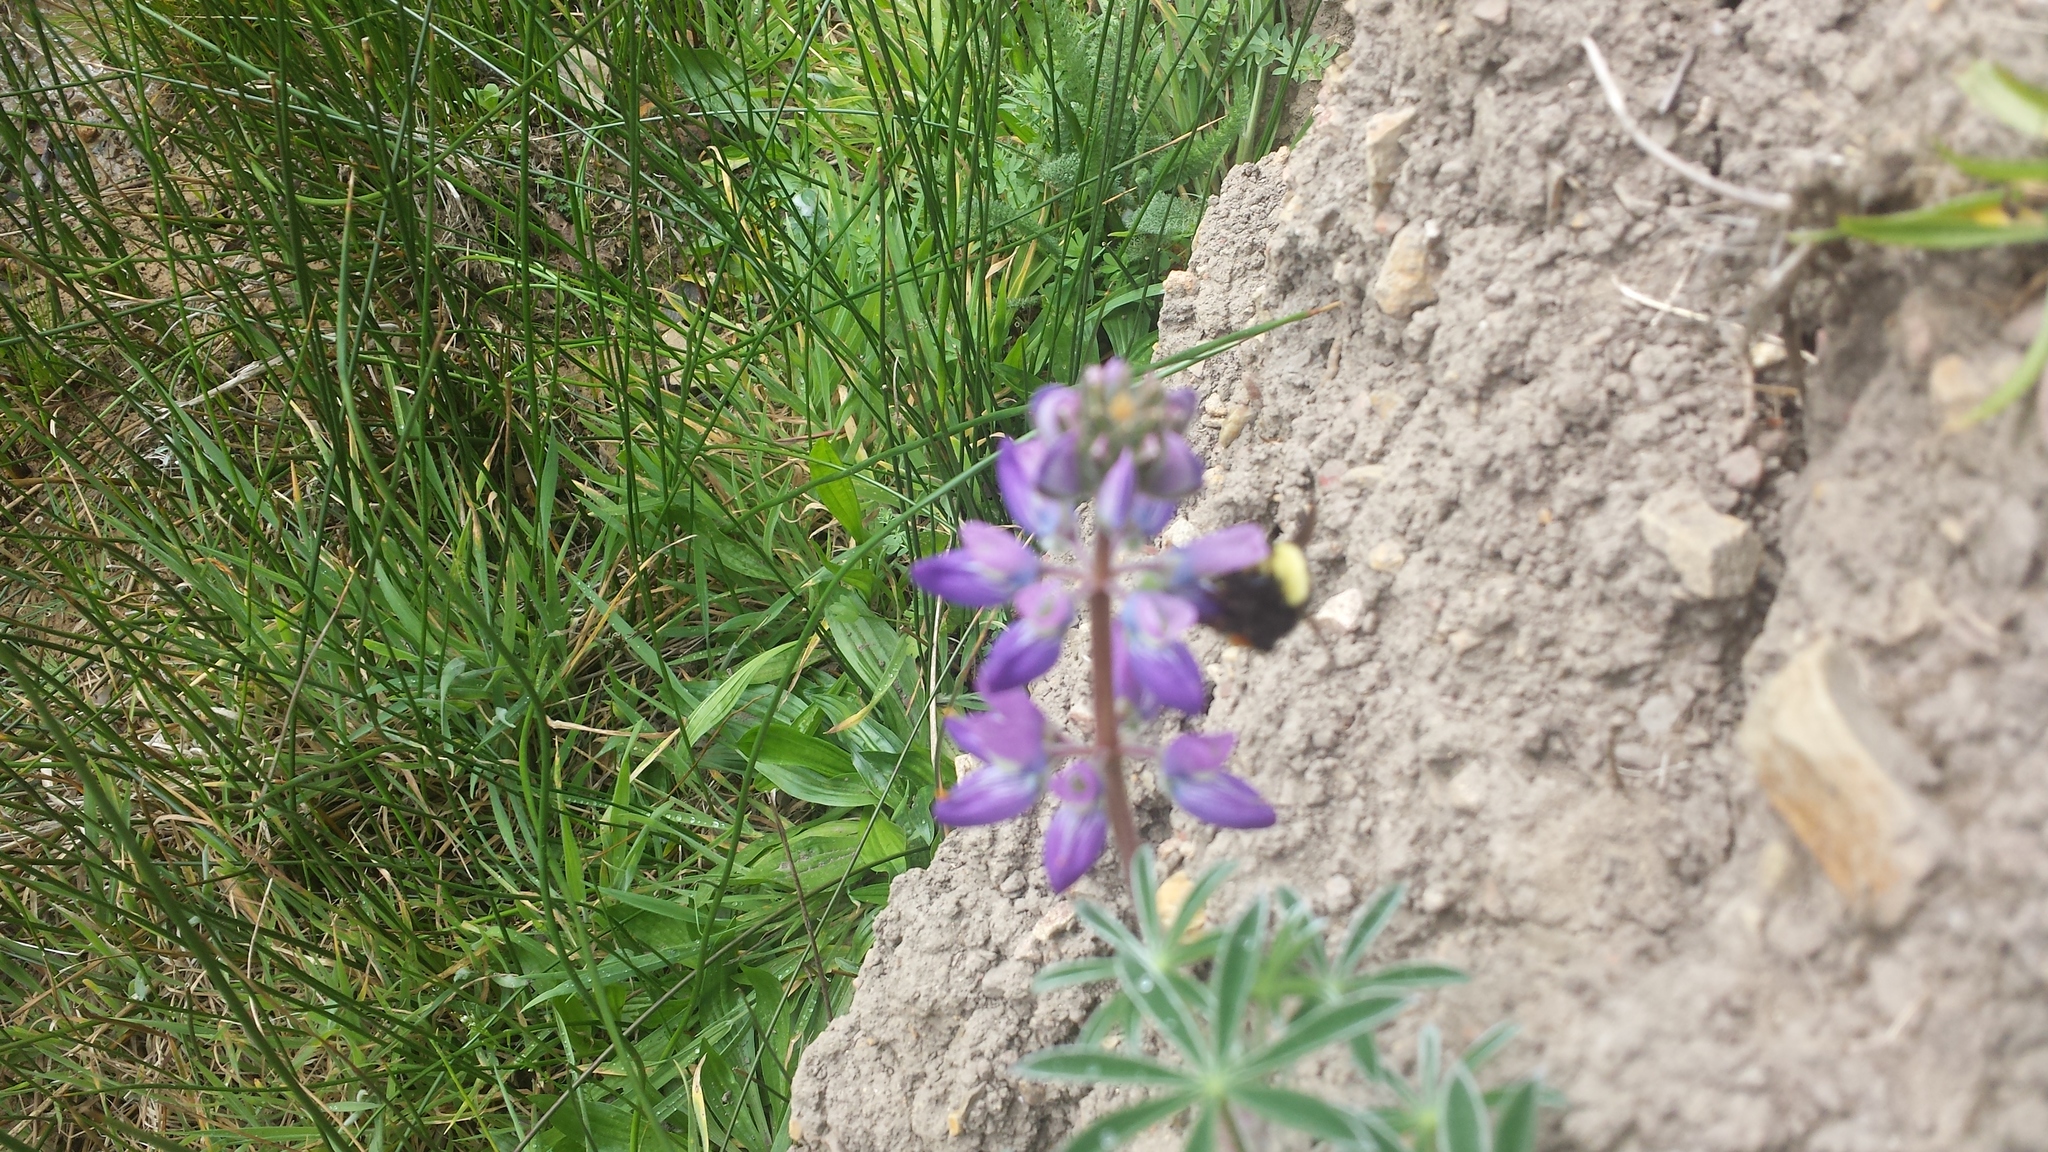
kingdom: Plantae
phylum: Tracheophyta
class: Magnoliopsida
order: Fabales
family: Fabaceae
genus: Lupinus
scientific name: Lupinus albifrons
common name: Foothill lupine
